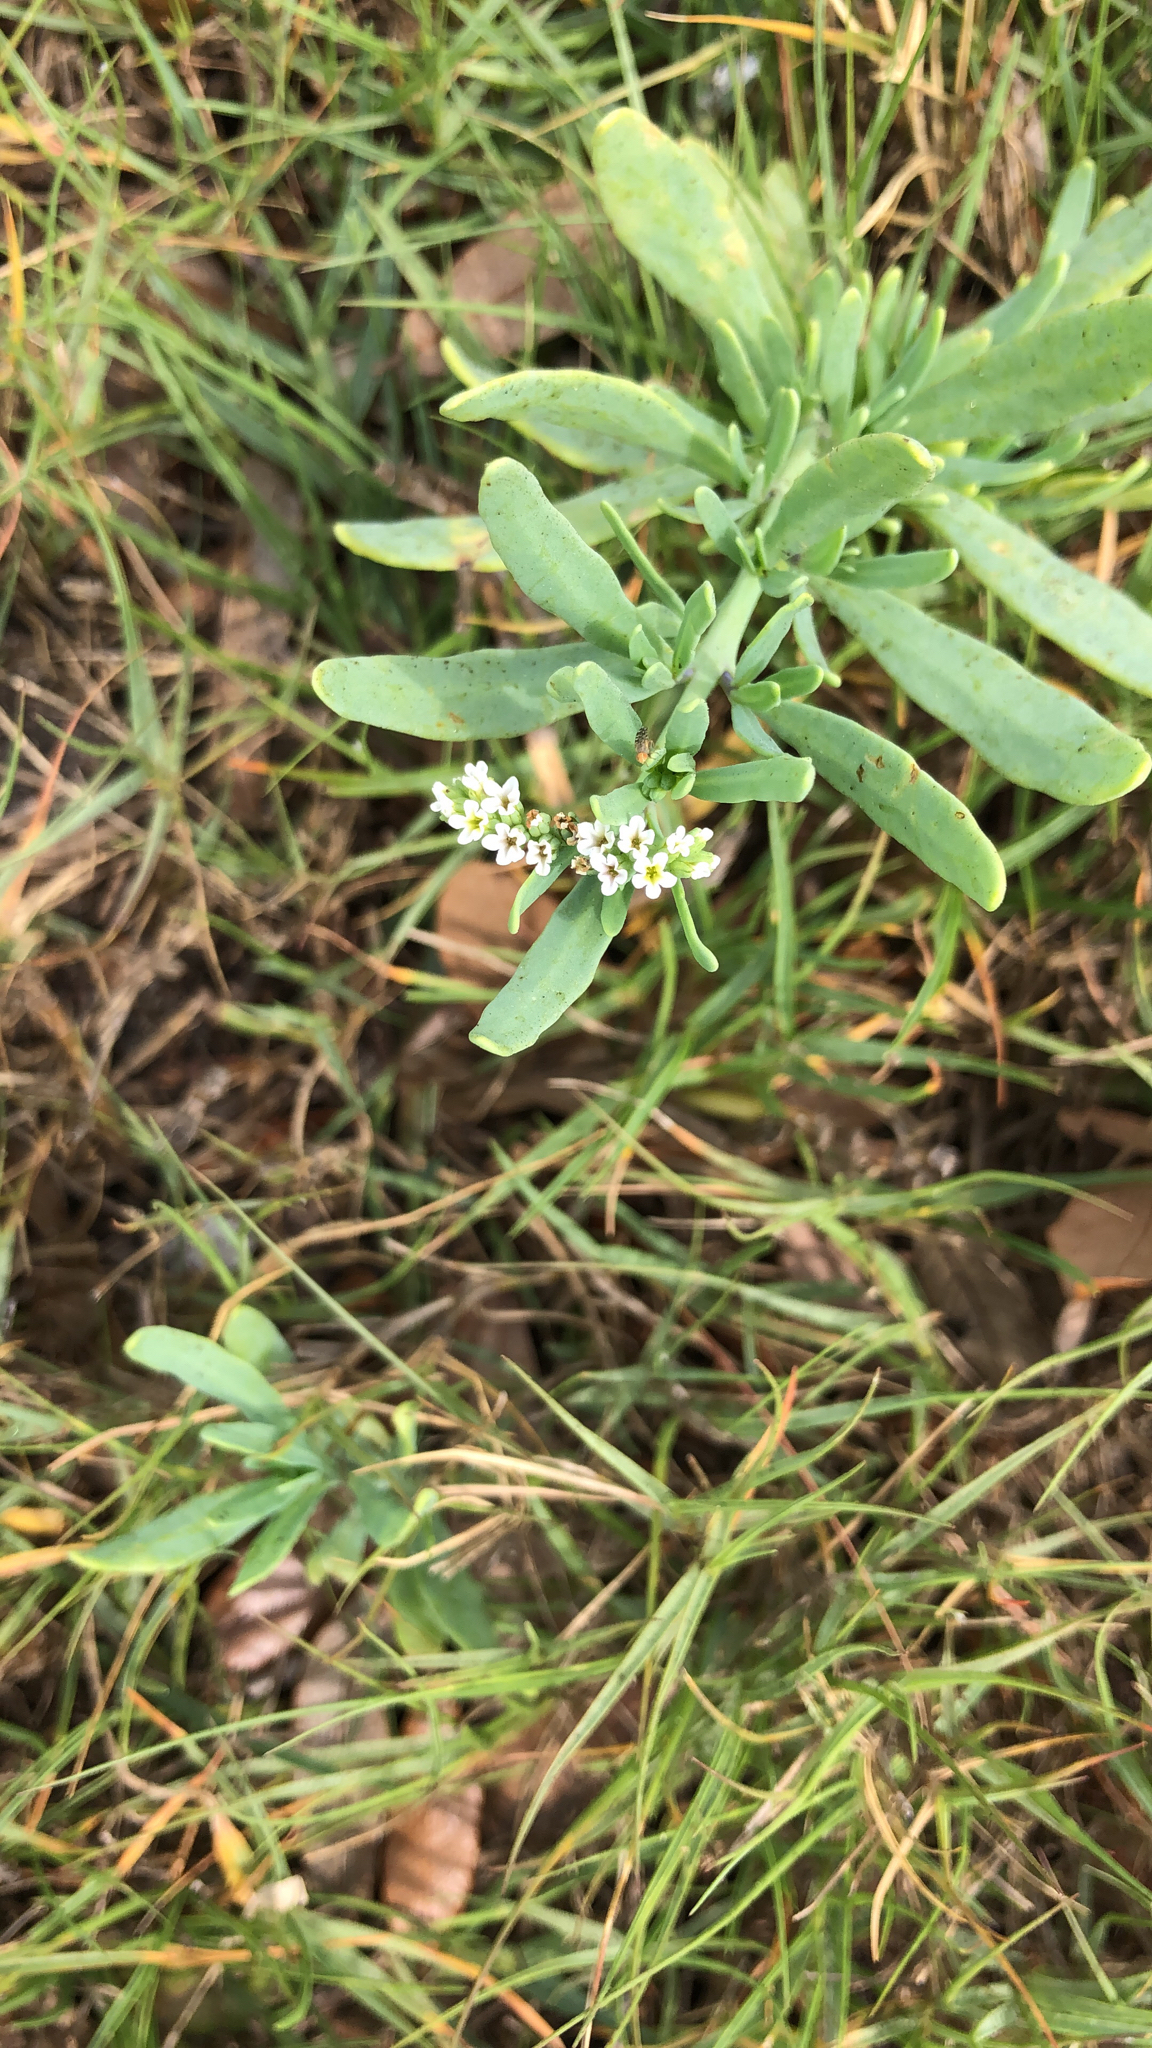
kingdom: Plantae
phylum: Tracheophyta
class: Magnoliopsida
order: Boraginales
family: Heliotropiaceae
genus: Heliotropium
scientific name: Heliotropium curassavicum
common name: Seaside heliotrope
